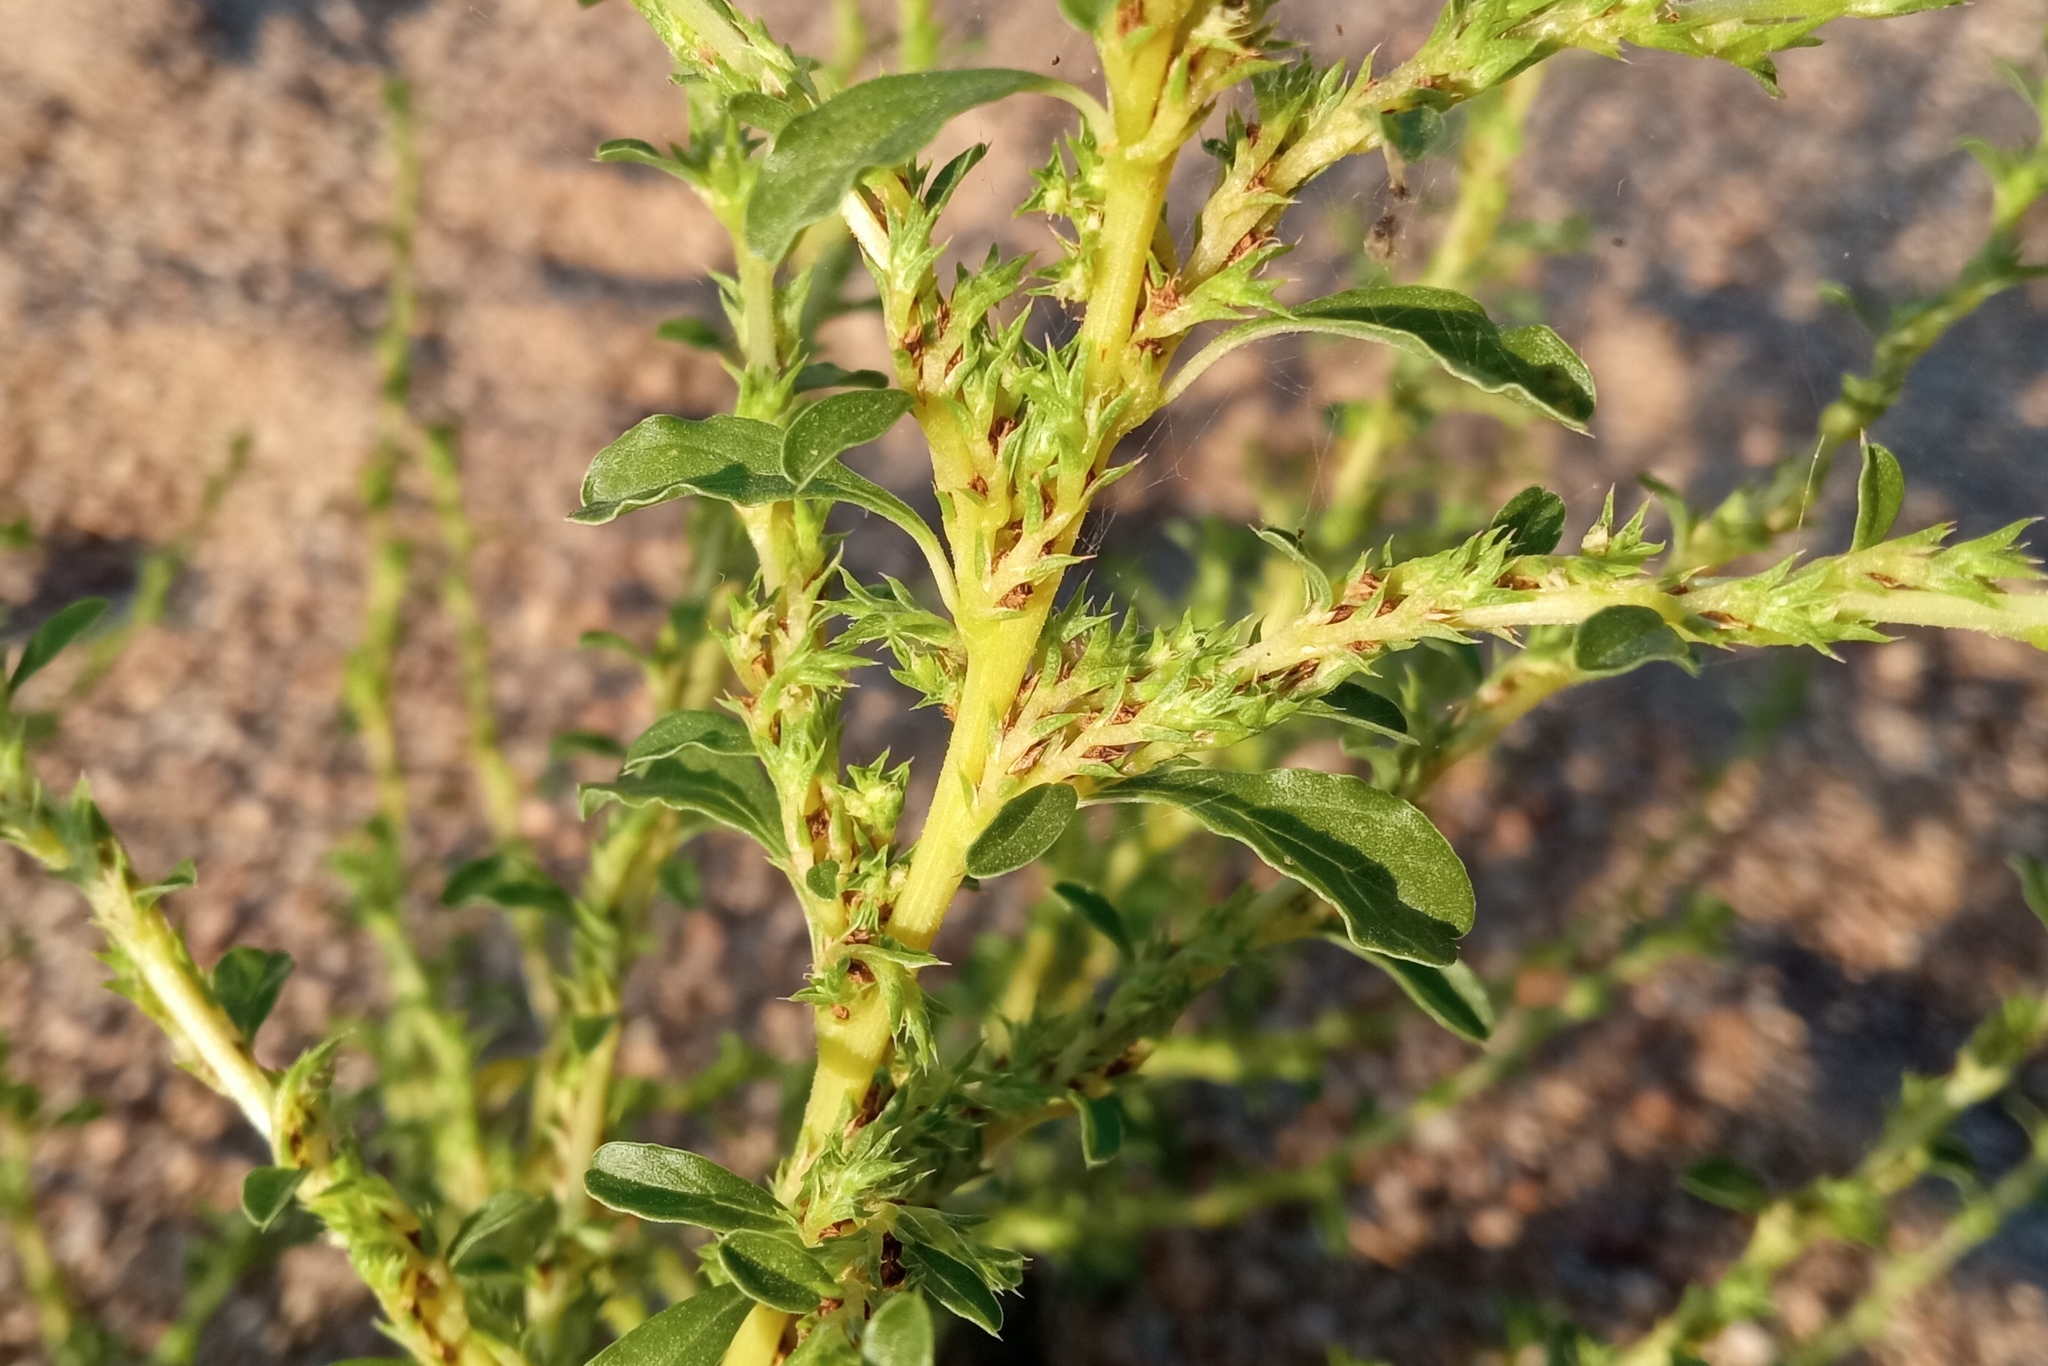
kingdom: Plantae
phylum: Tracheophyta
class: Magnoliopsida
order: Caryophyllales
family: Amaranthaceae
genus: Amaranthus
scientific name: Amaranthus albus
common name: White pigweed
